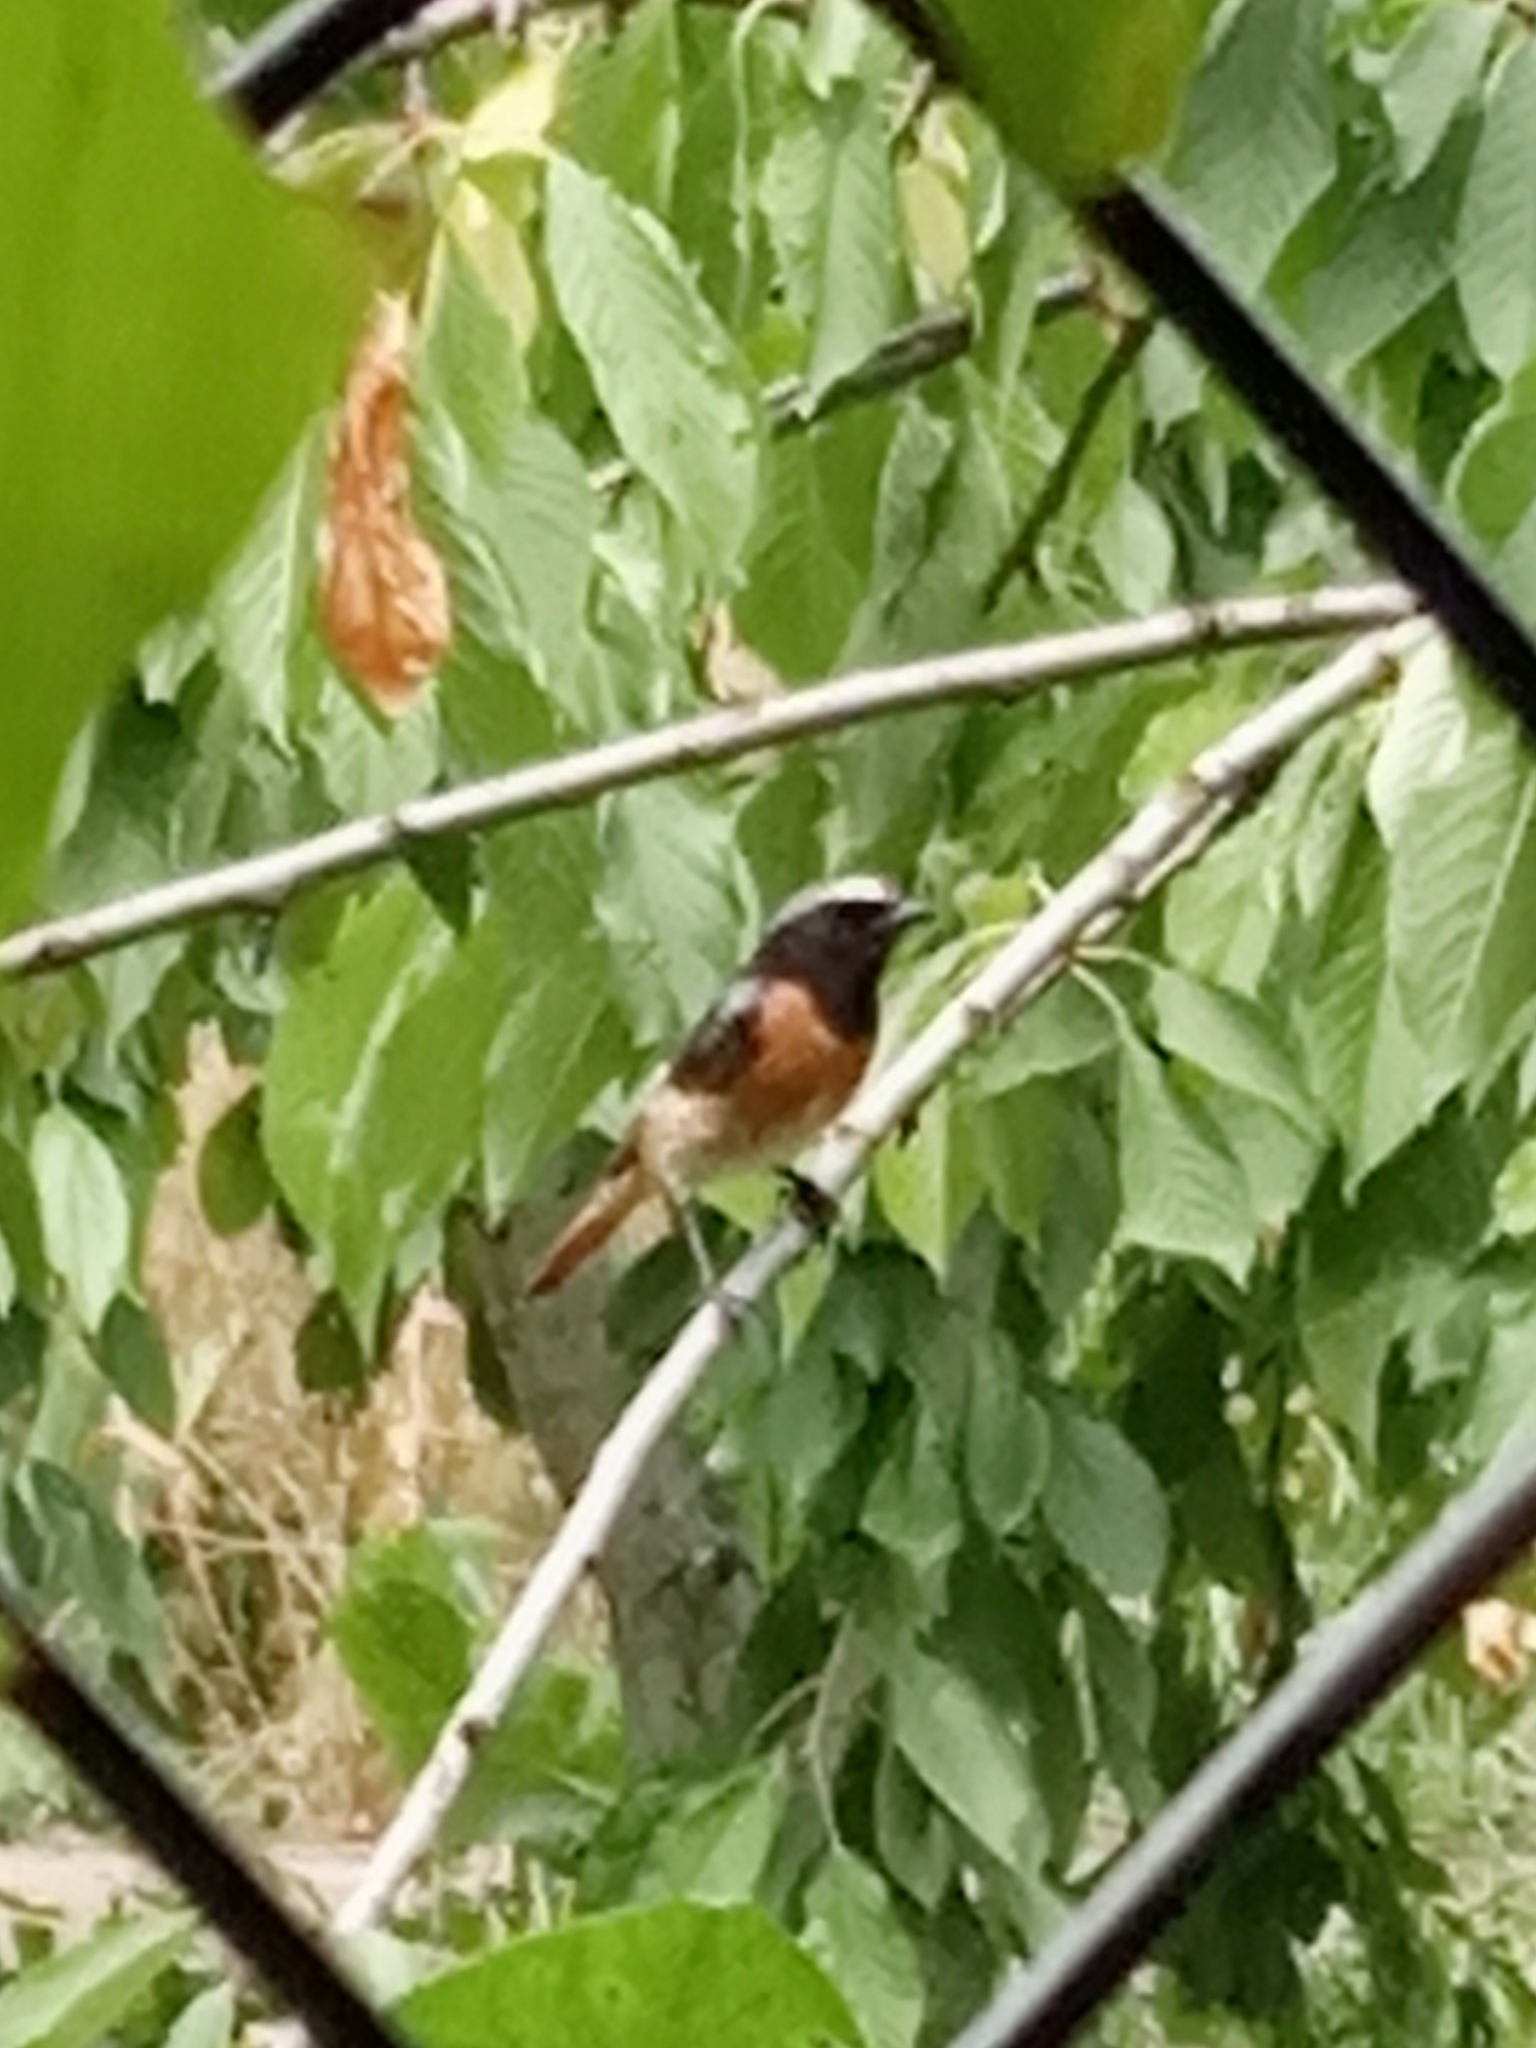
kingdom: Animalia
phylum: Chordata
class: Aves
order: Passeriformes
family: Muscicapidae
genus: Phoenicurus
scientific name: Phoenicurus phoenicurus
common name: Common redstart
